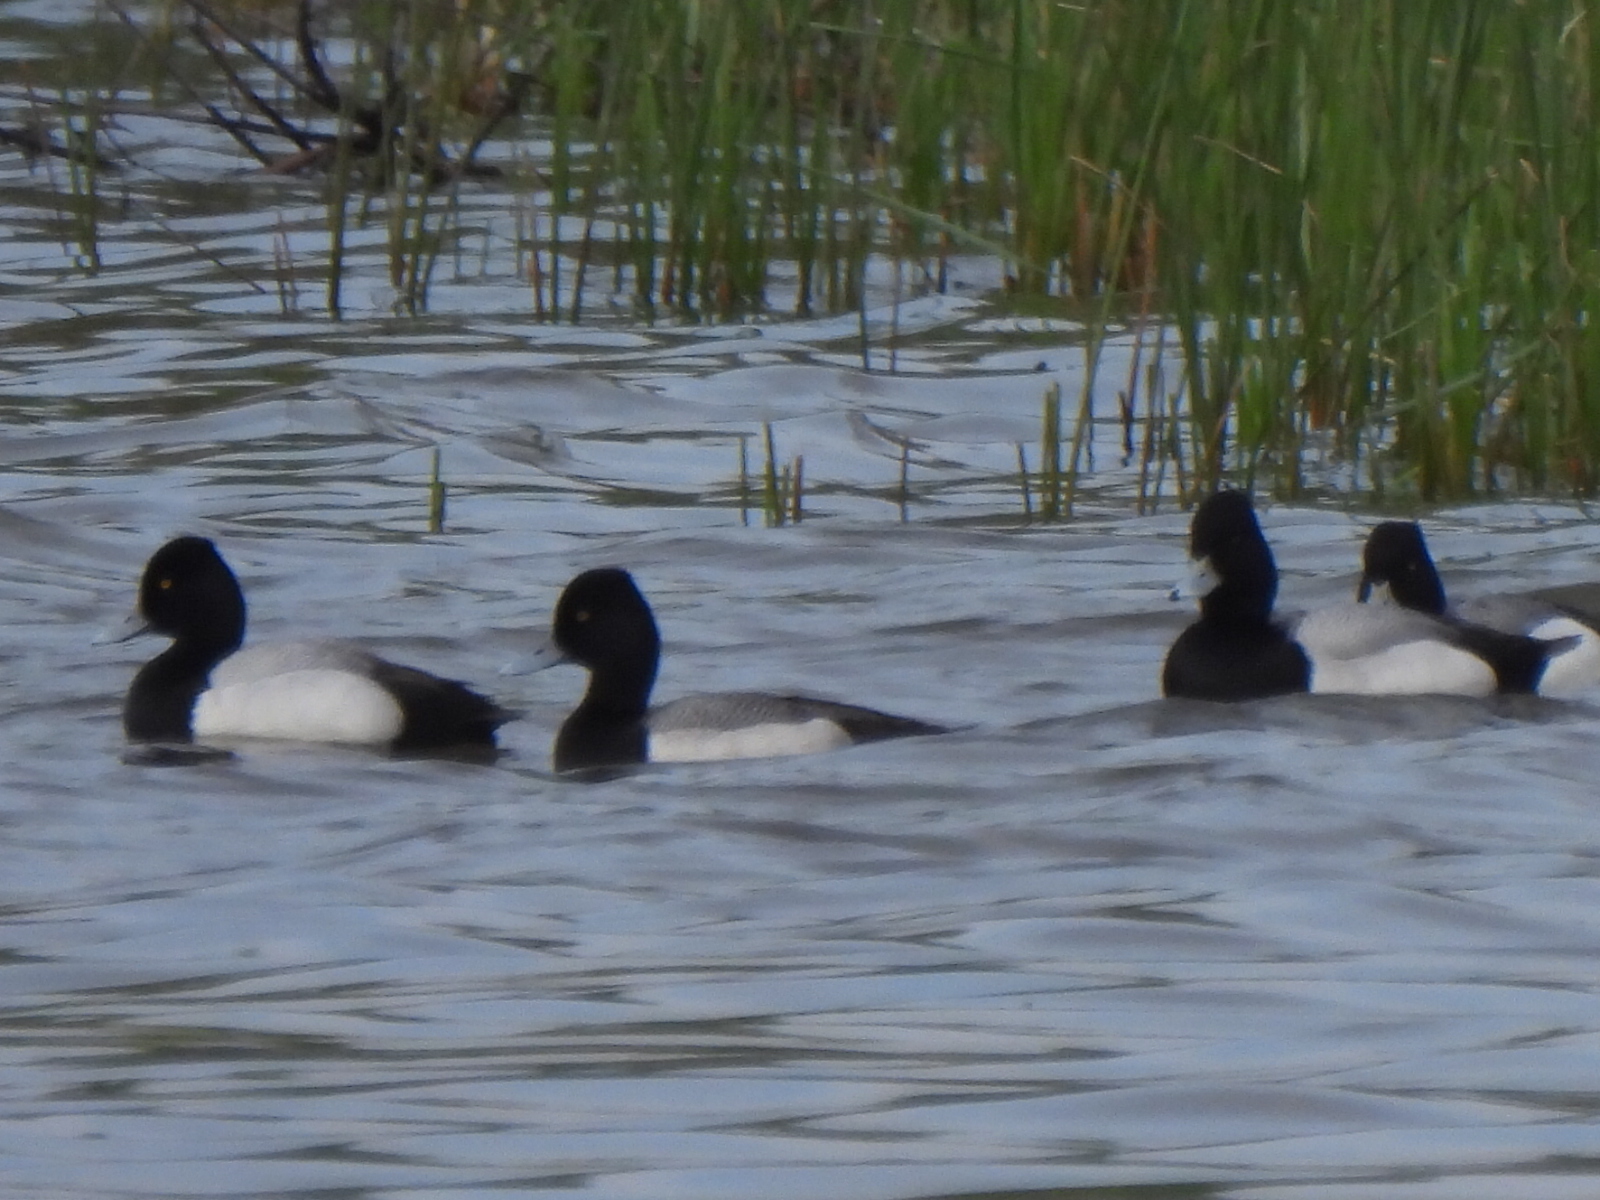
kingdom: Animalia
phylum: Chordata
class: Aves
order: Anseriformes
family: Anatidae
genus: Aythya
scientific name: Aythya affinis
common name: Lesser scaup
